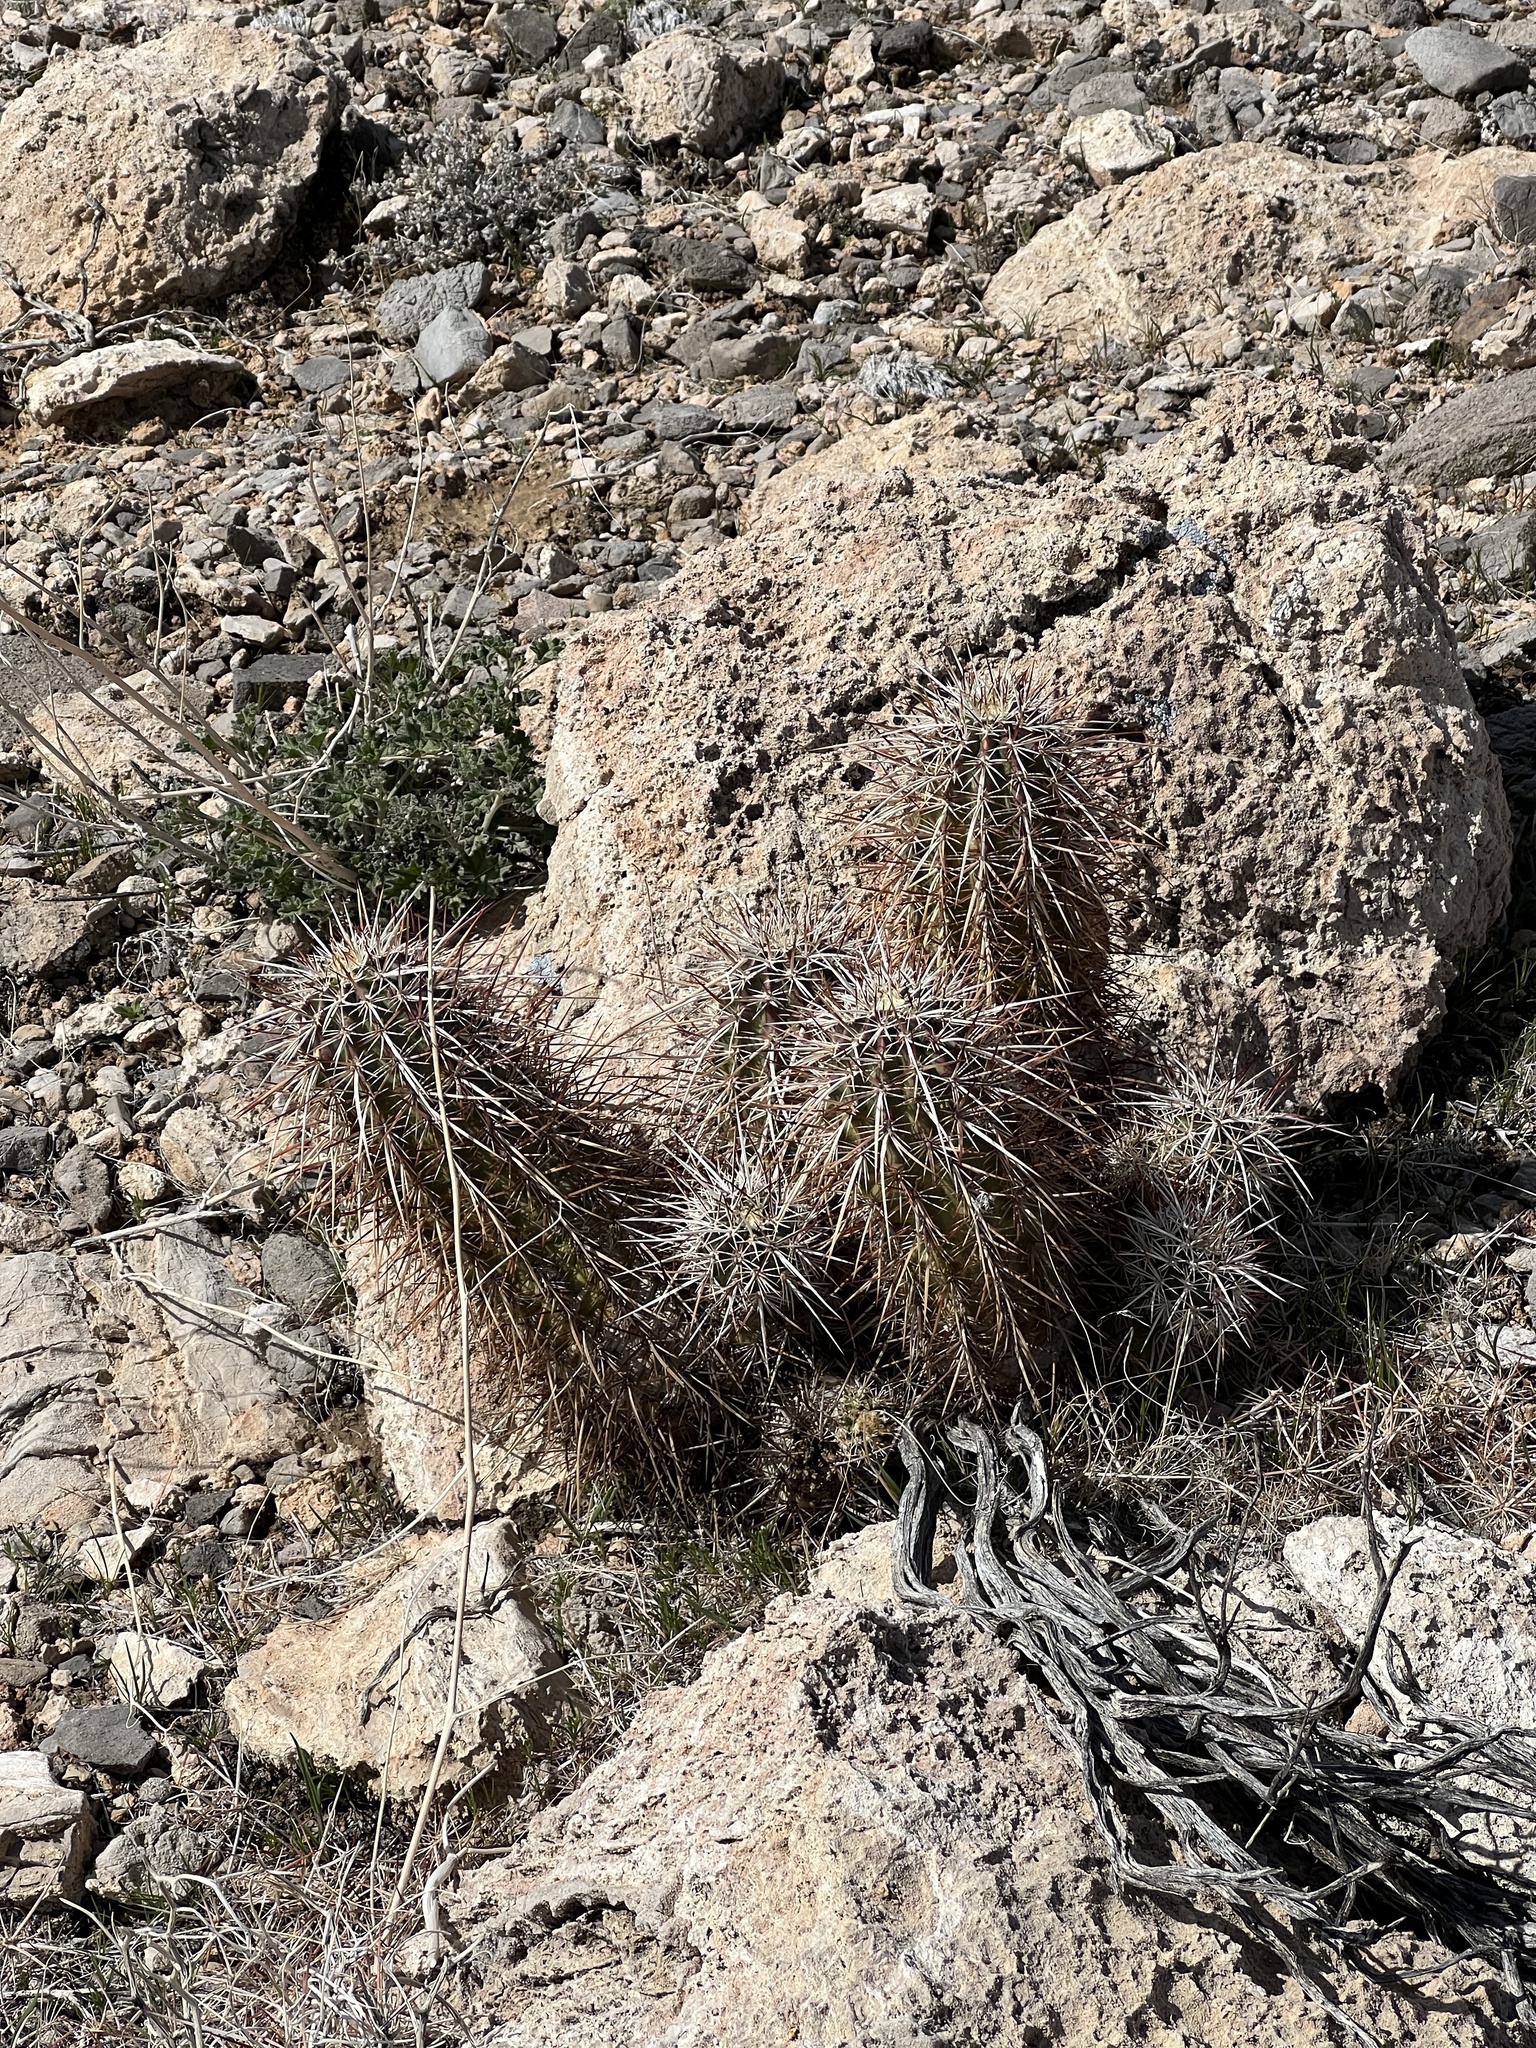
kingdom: Plantae
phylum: Tracheophyta
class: Magnoliopsida
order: Caryophyllales
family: Cactaceae
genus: Echinocereus
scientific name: Echinocereus engelmannii
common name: Engelmann's hedgehog cactus
